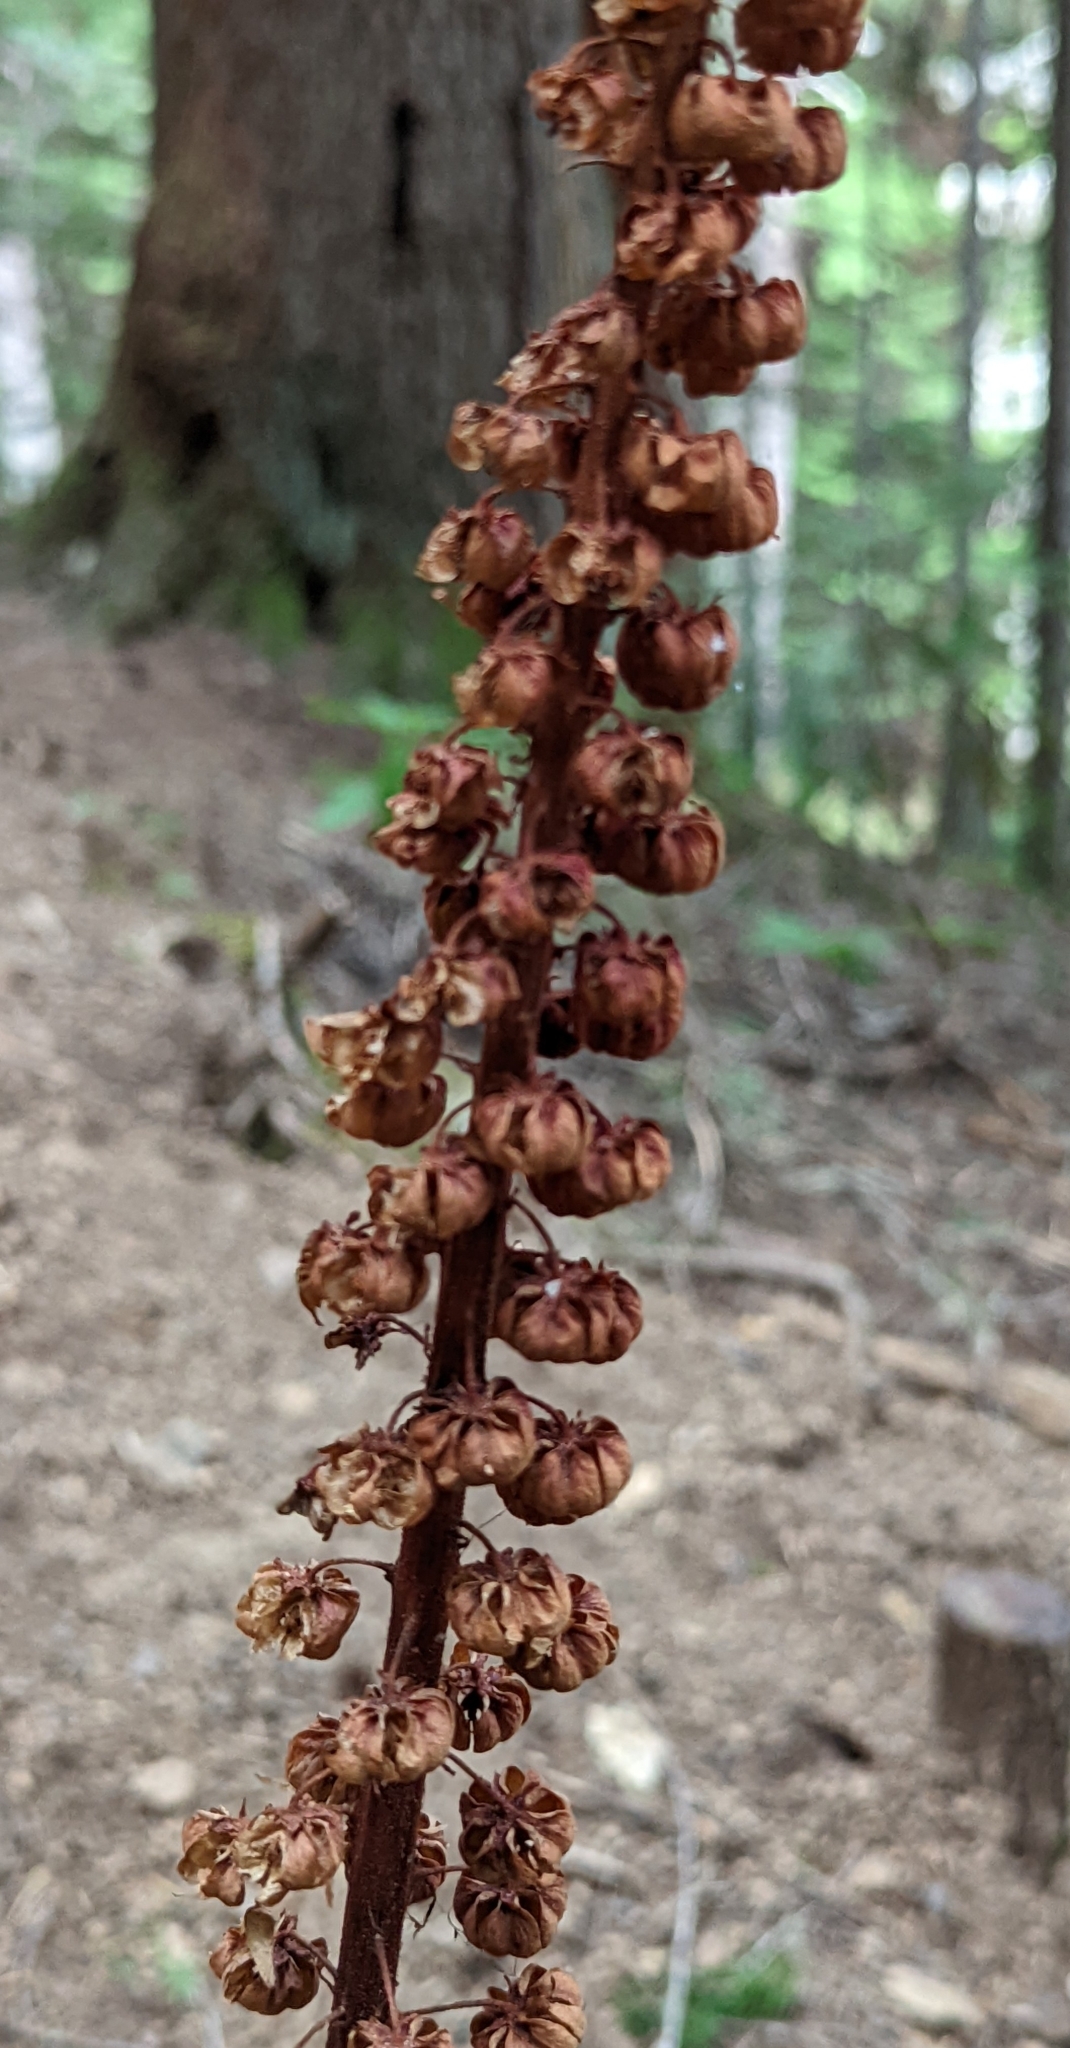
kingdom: Plantae
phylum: Tracheophyta
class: Magnoliopsida
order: Ericales
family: Ericaceae
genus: Pterospora
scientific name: Pterospora andromedea
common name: Giant bird's-nest
